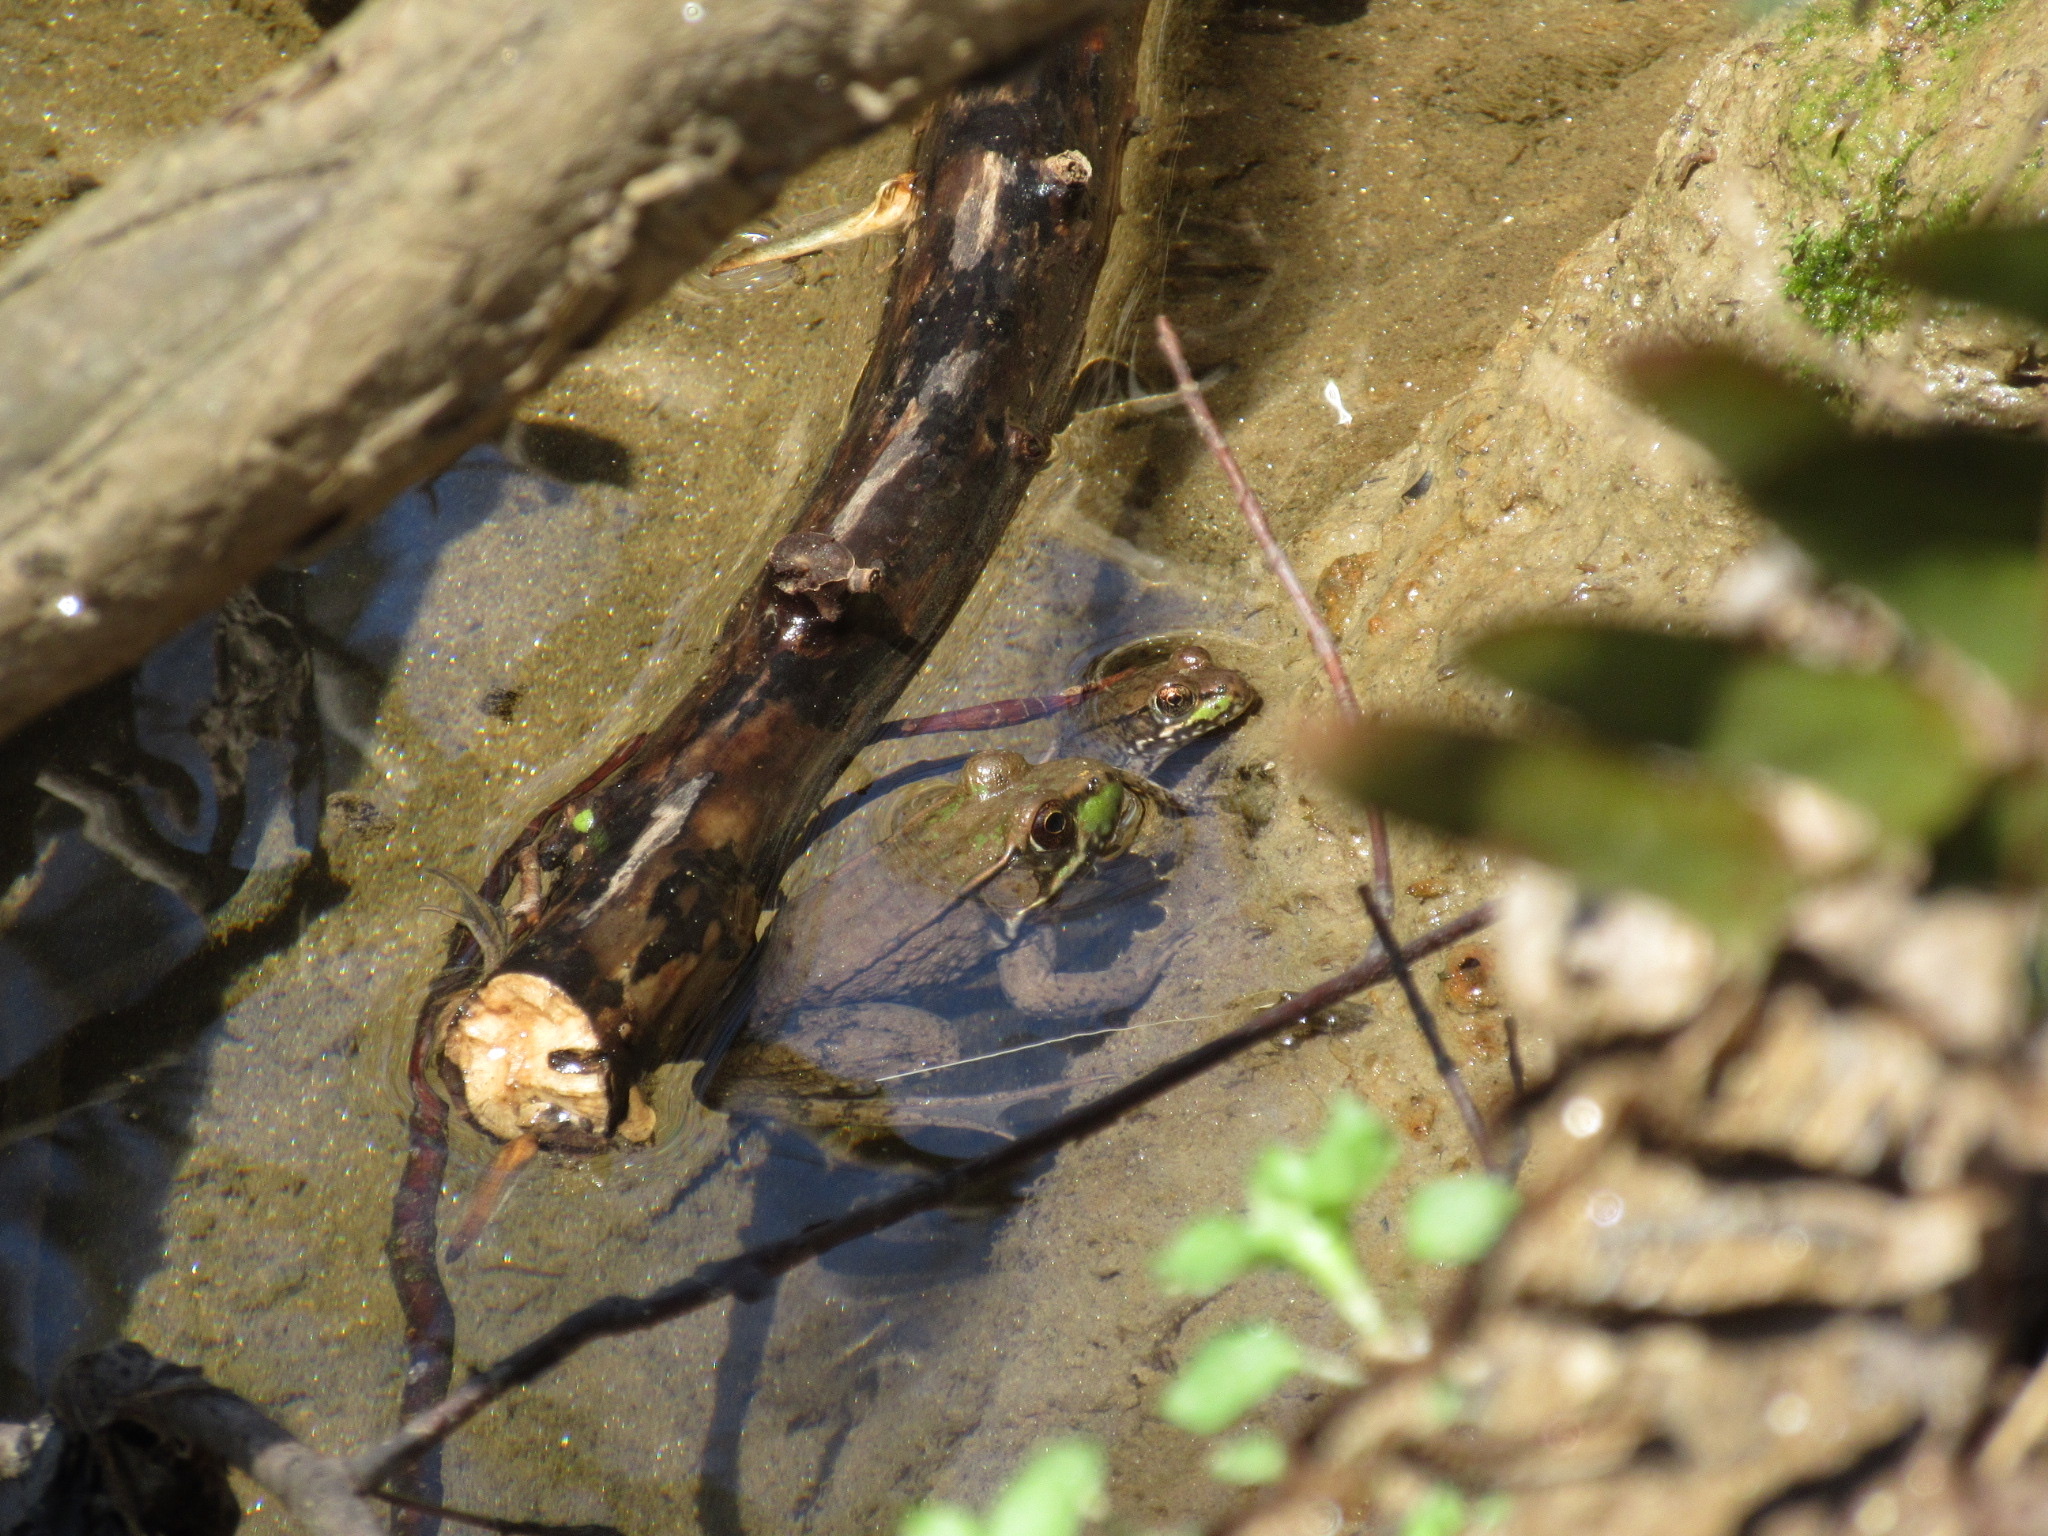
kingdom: Animalia
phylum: Chordata
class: Amphibia
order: Anura
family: Ranidae
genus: Lithobates
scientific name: Lithobates clamitans
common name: Green frog
